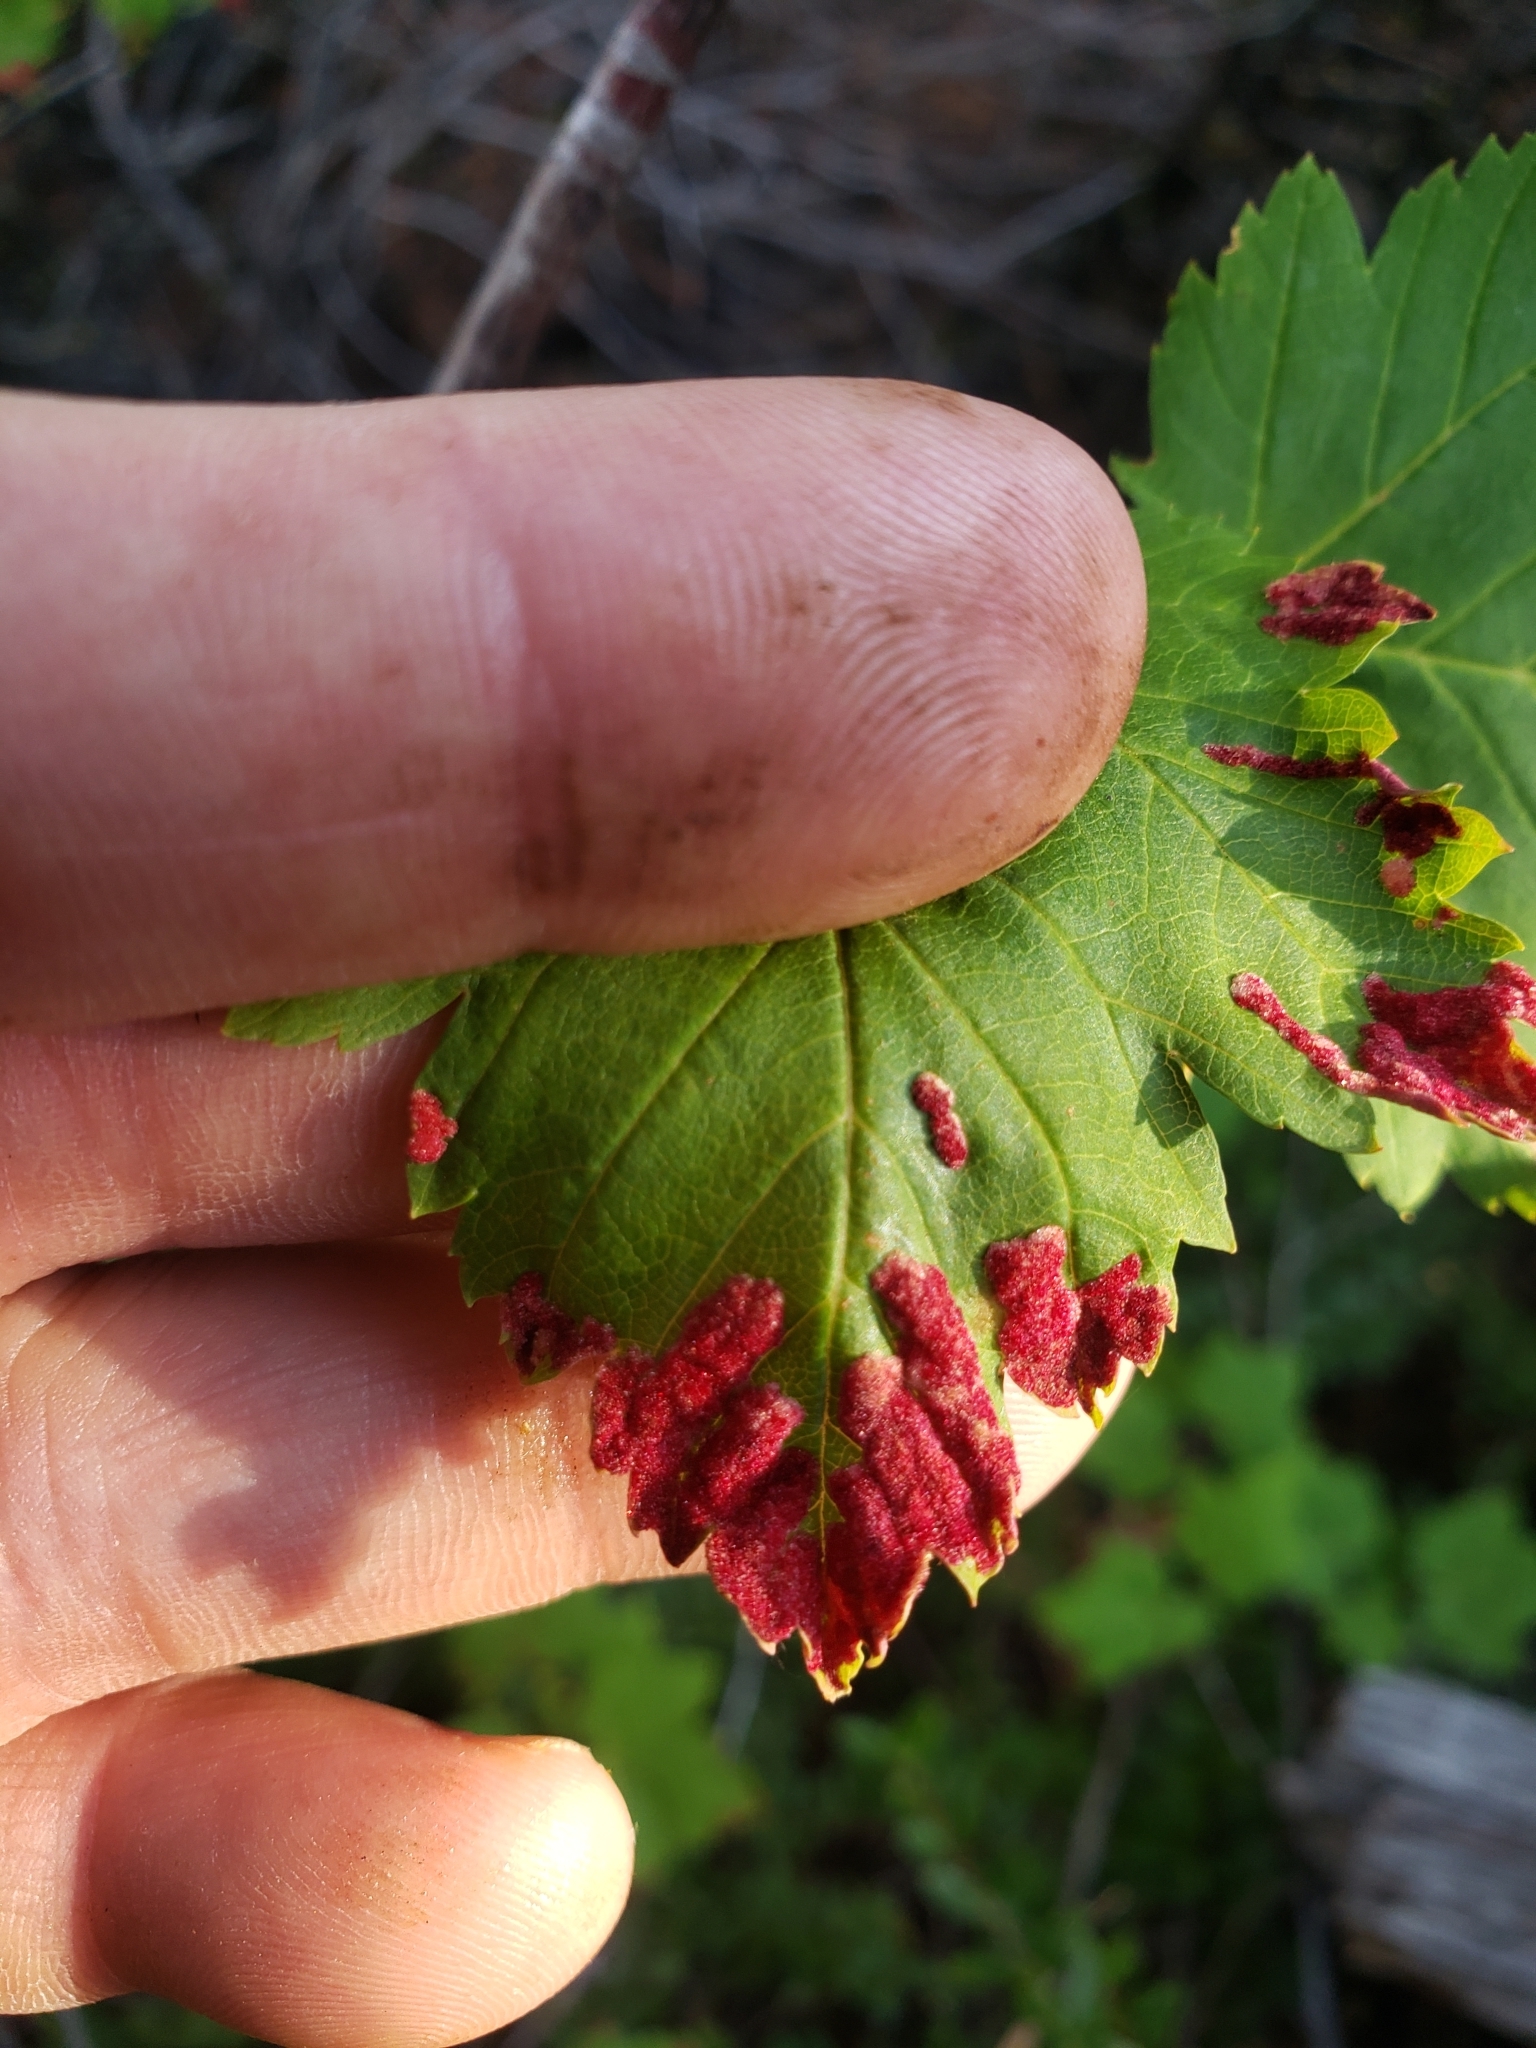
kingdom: Animalia
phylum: Arthropoda
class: Arachnida
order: Trombidiformes
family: Eriophyidae
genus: Aceria
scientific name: Aceria
